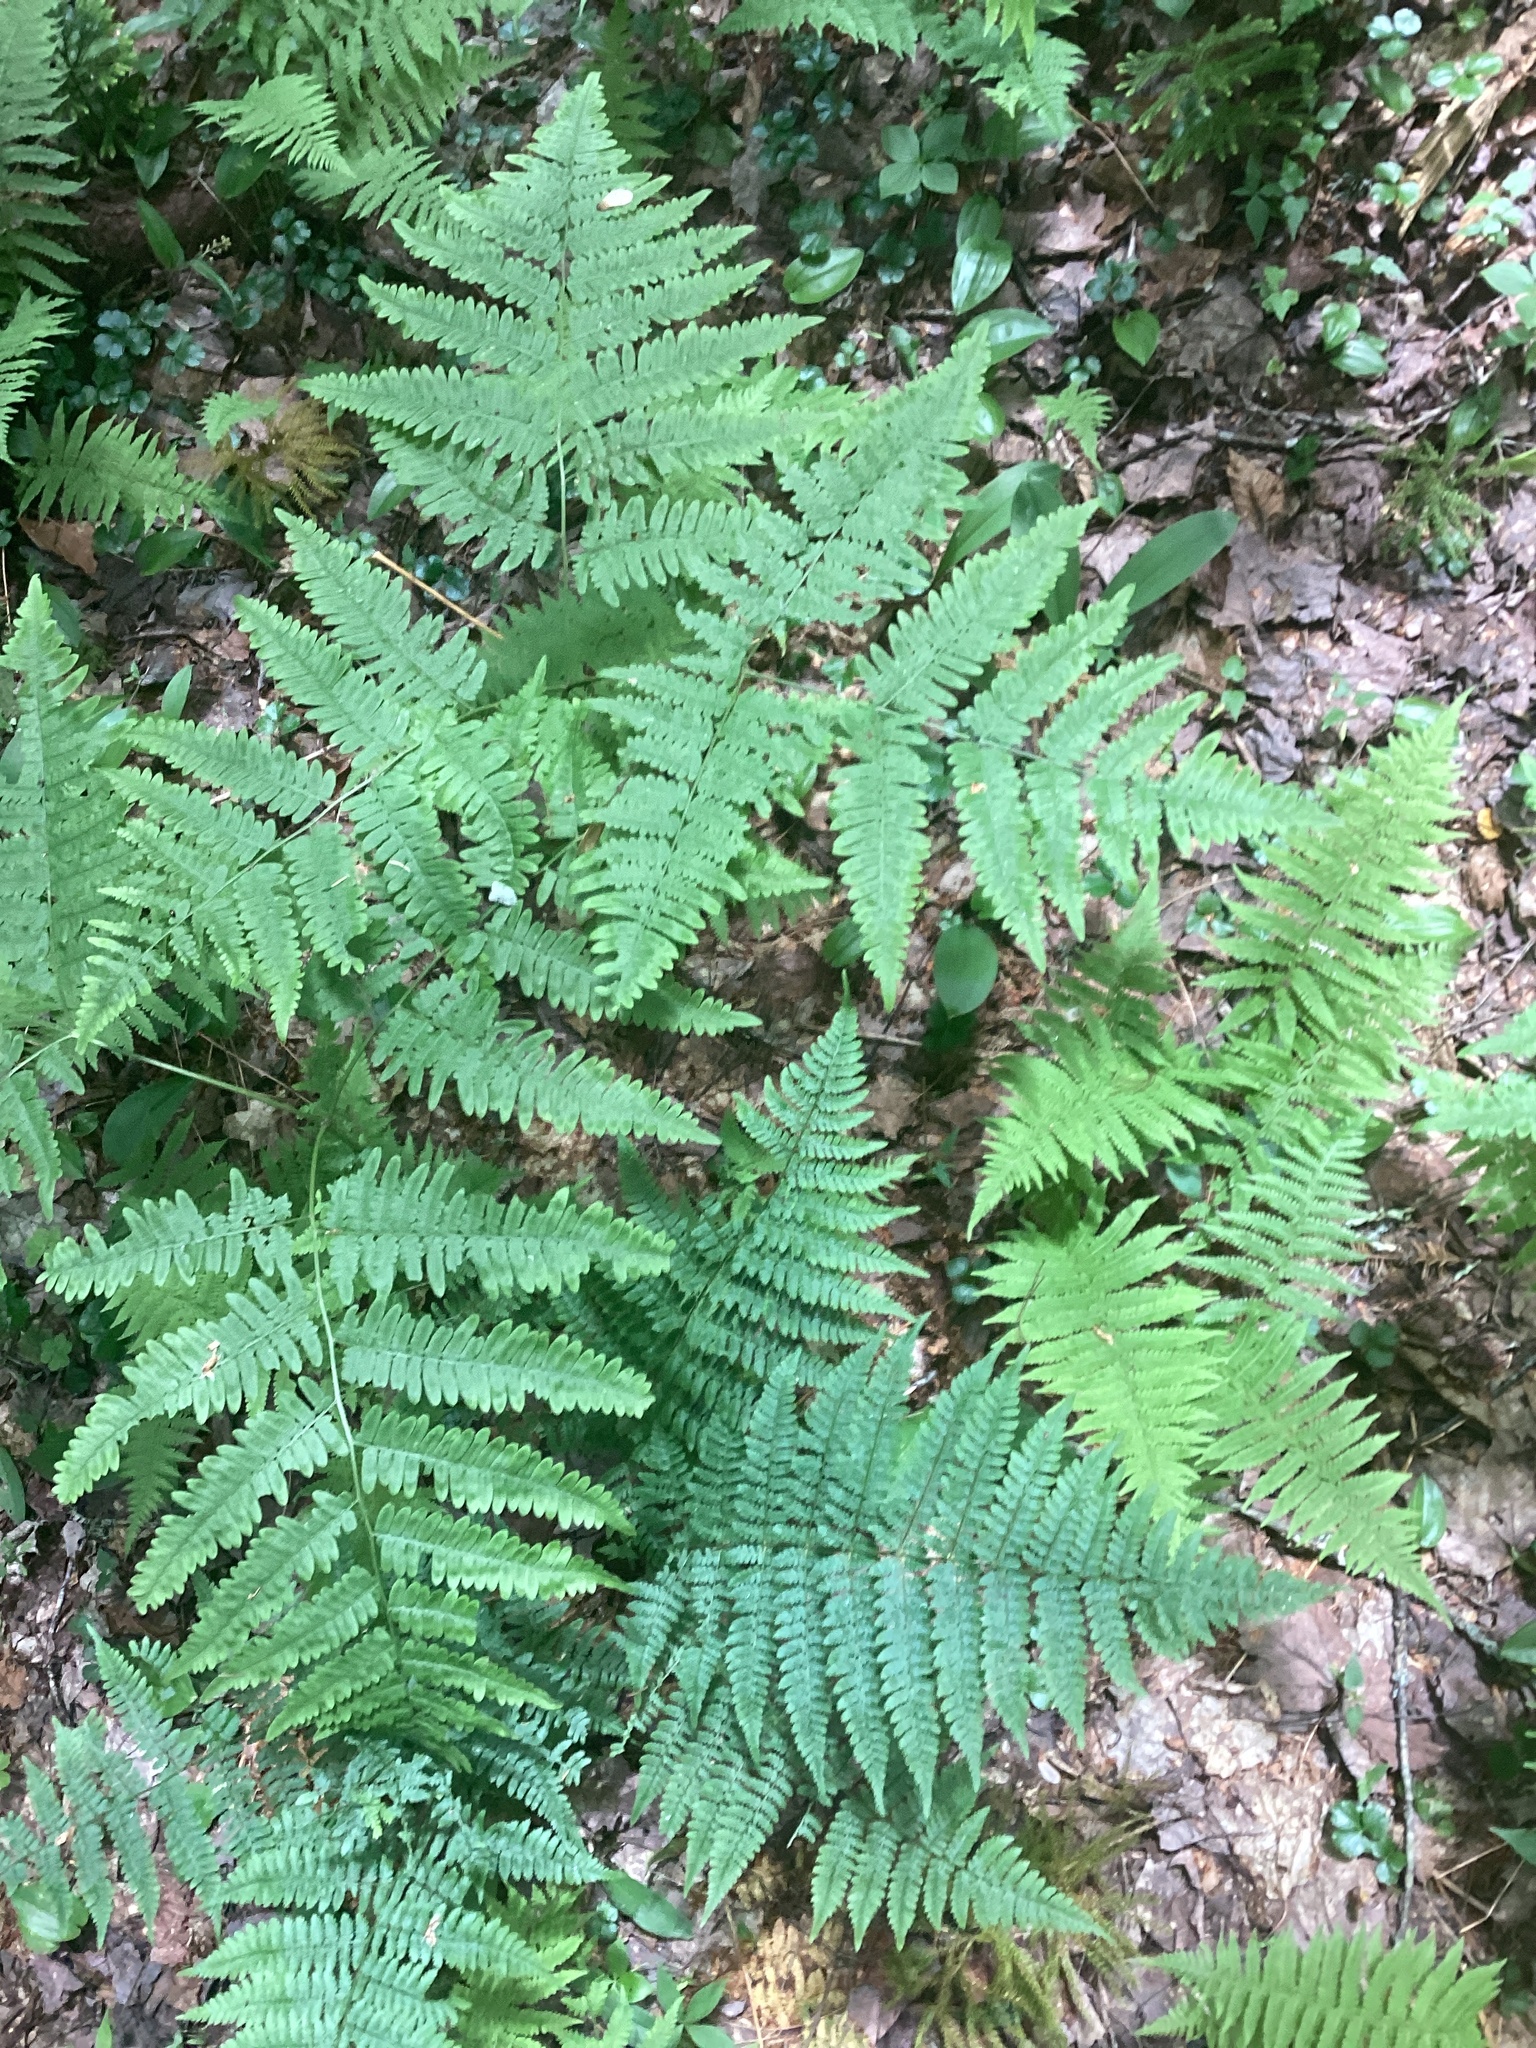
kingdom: Plantae
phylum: Tracheophyta
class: Polypodiopsida
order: Polypodiales
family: Dennstaedtiaceae
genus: Pteridium
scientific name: Pteridium aquilinum
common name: Bracken
